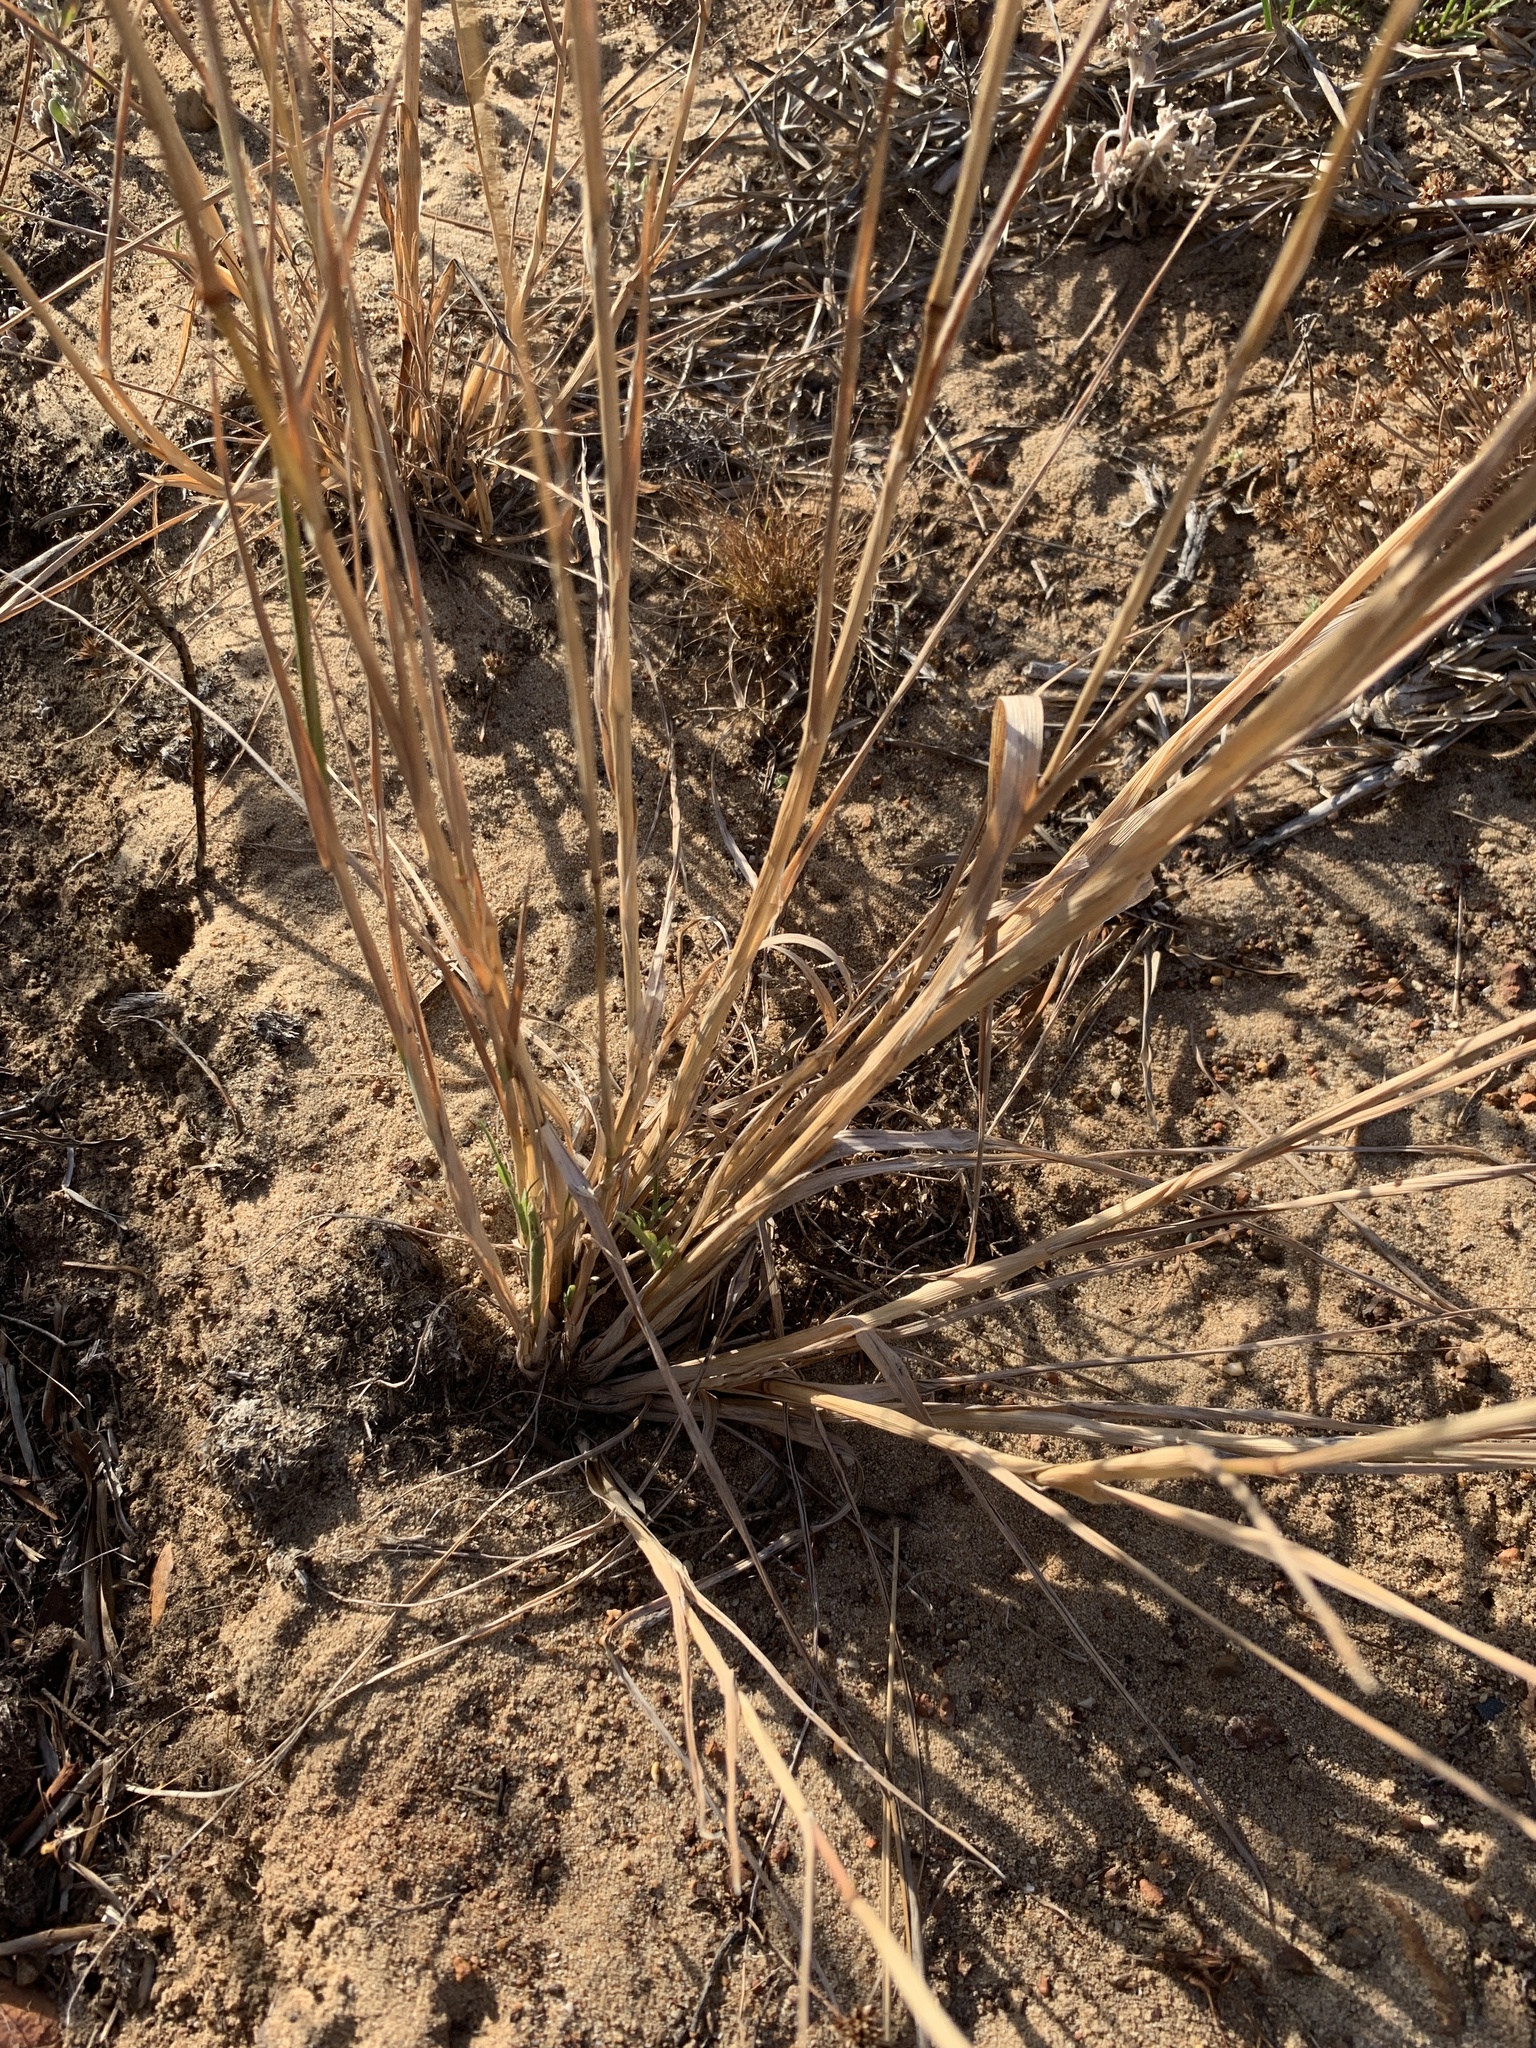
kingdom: Plantae
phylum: Tracheophyta
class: Liliopsida
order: Poales
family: Poaceae
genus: Polypogon
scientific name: Polypogon monspeliensis
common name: Annual rabbitsfoot grass
